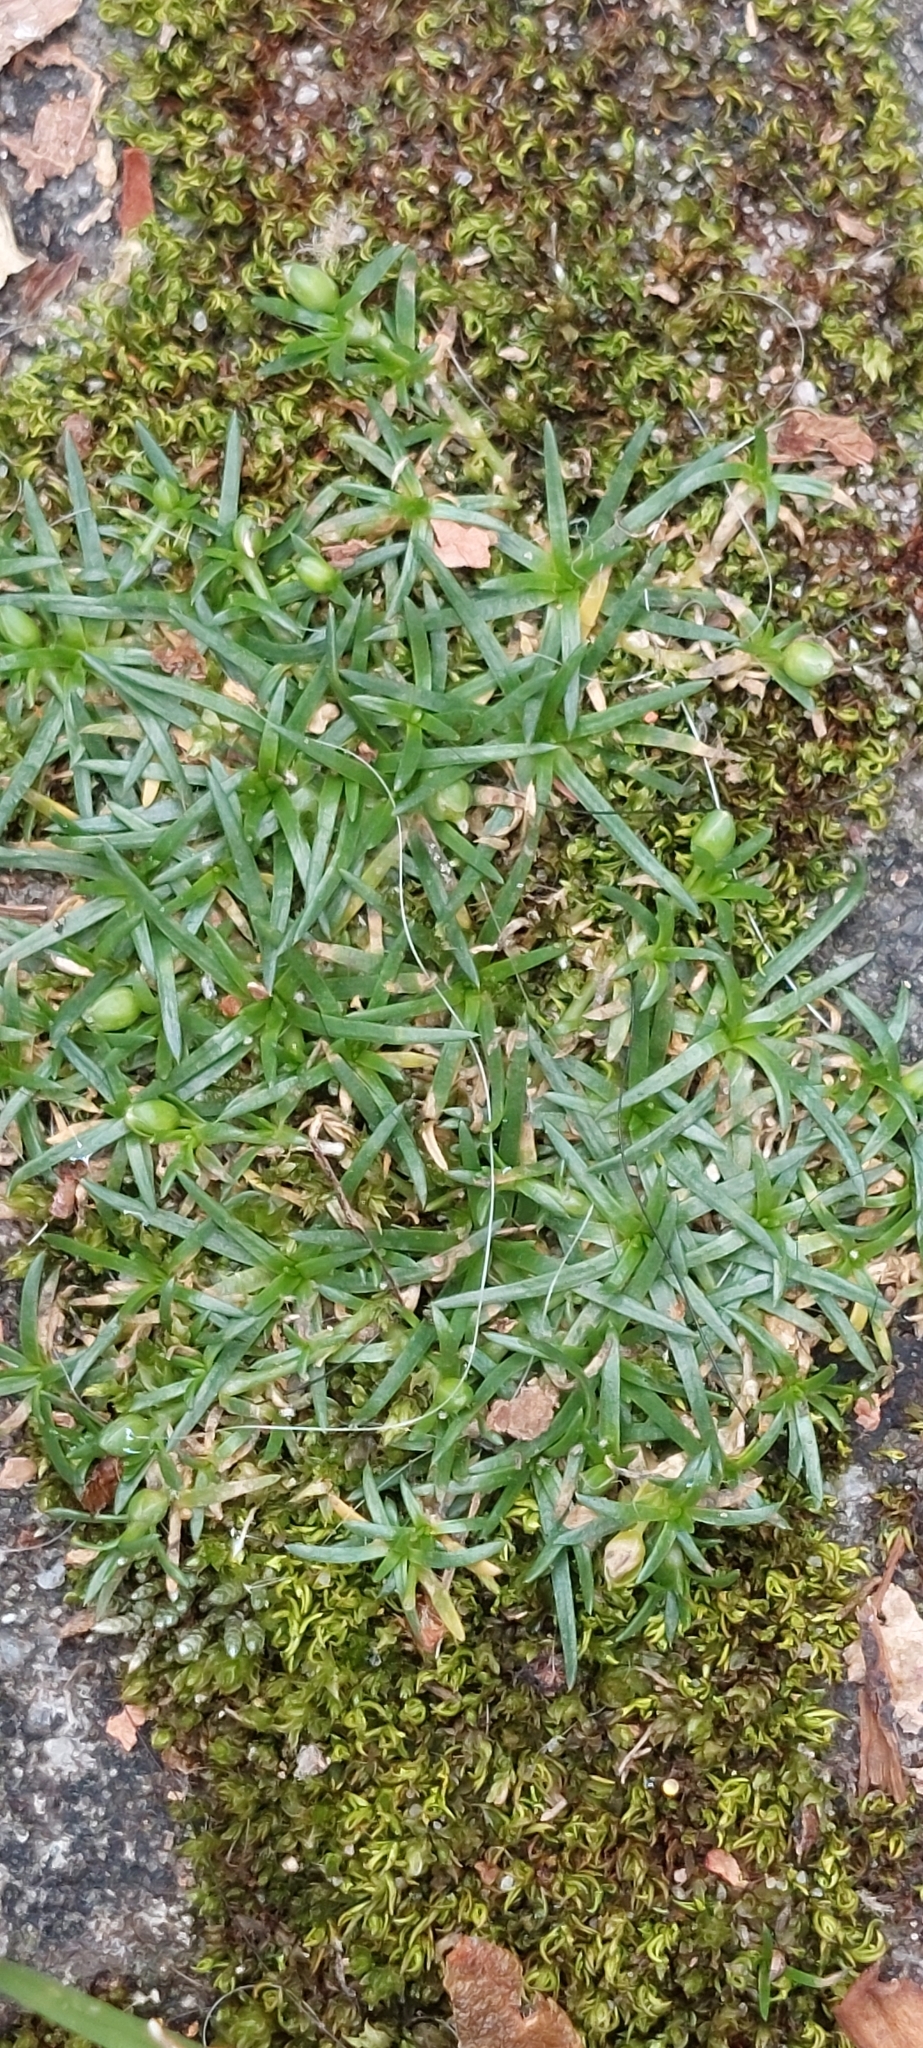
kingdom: Plantae
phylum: Tracheophyta
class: Magnoliopsida
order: Caryophyllales
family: Caryophyllaceae
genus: Sagina
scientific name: Sagina procumbens
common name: Procumbent pearlwort
